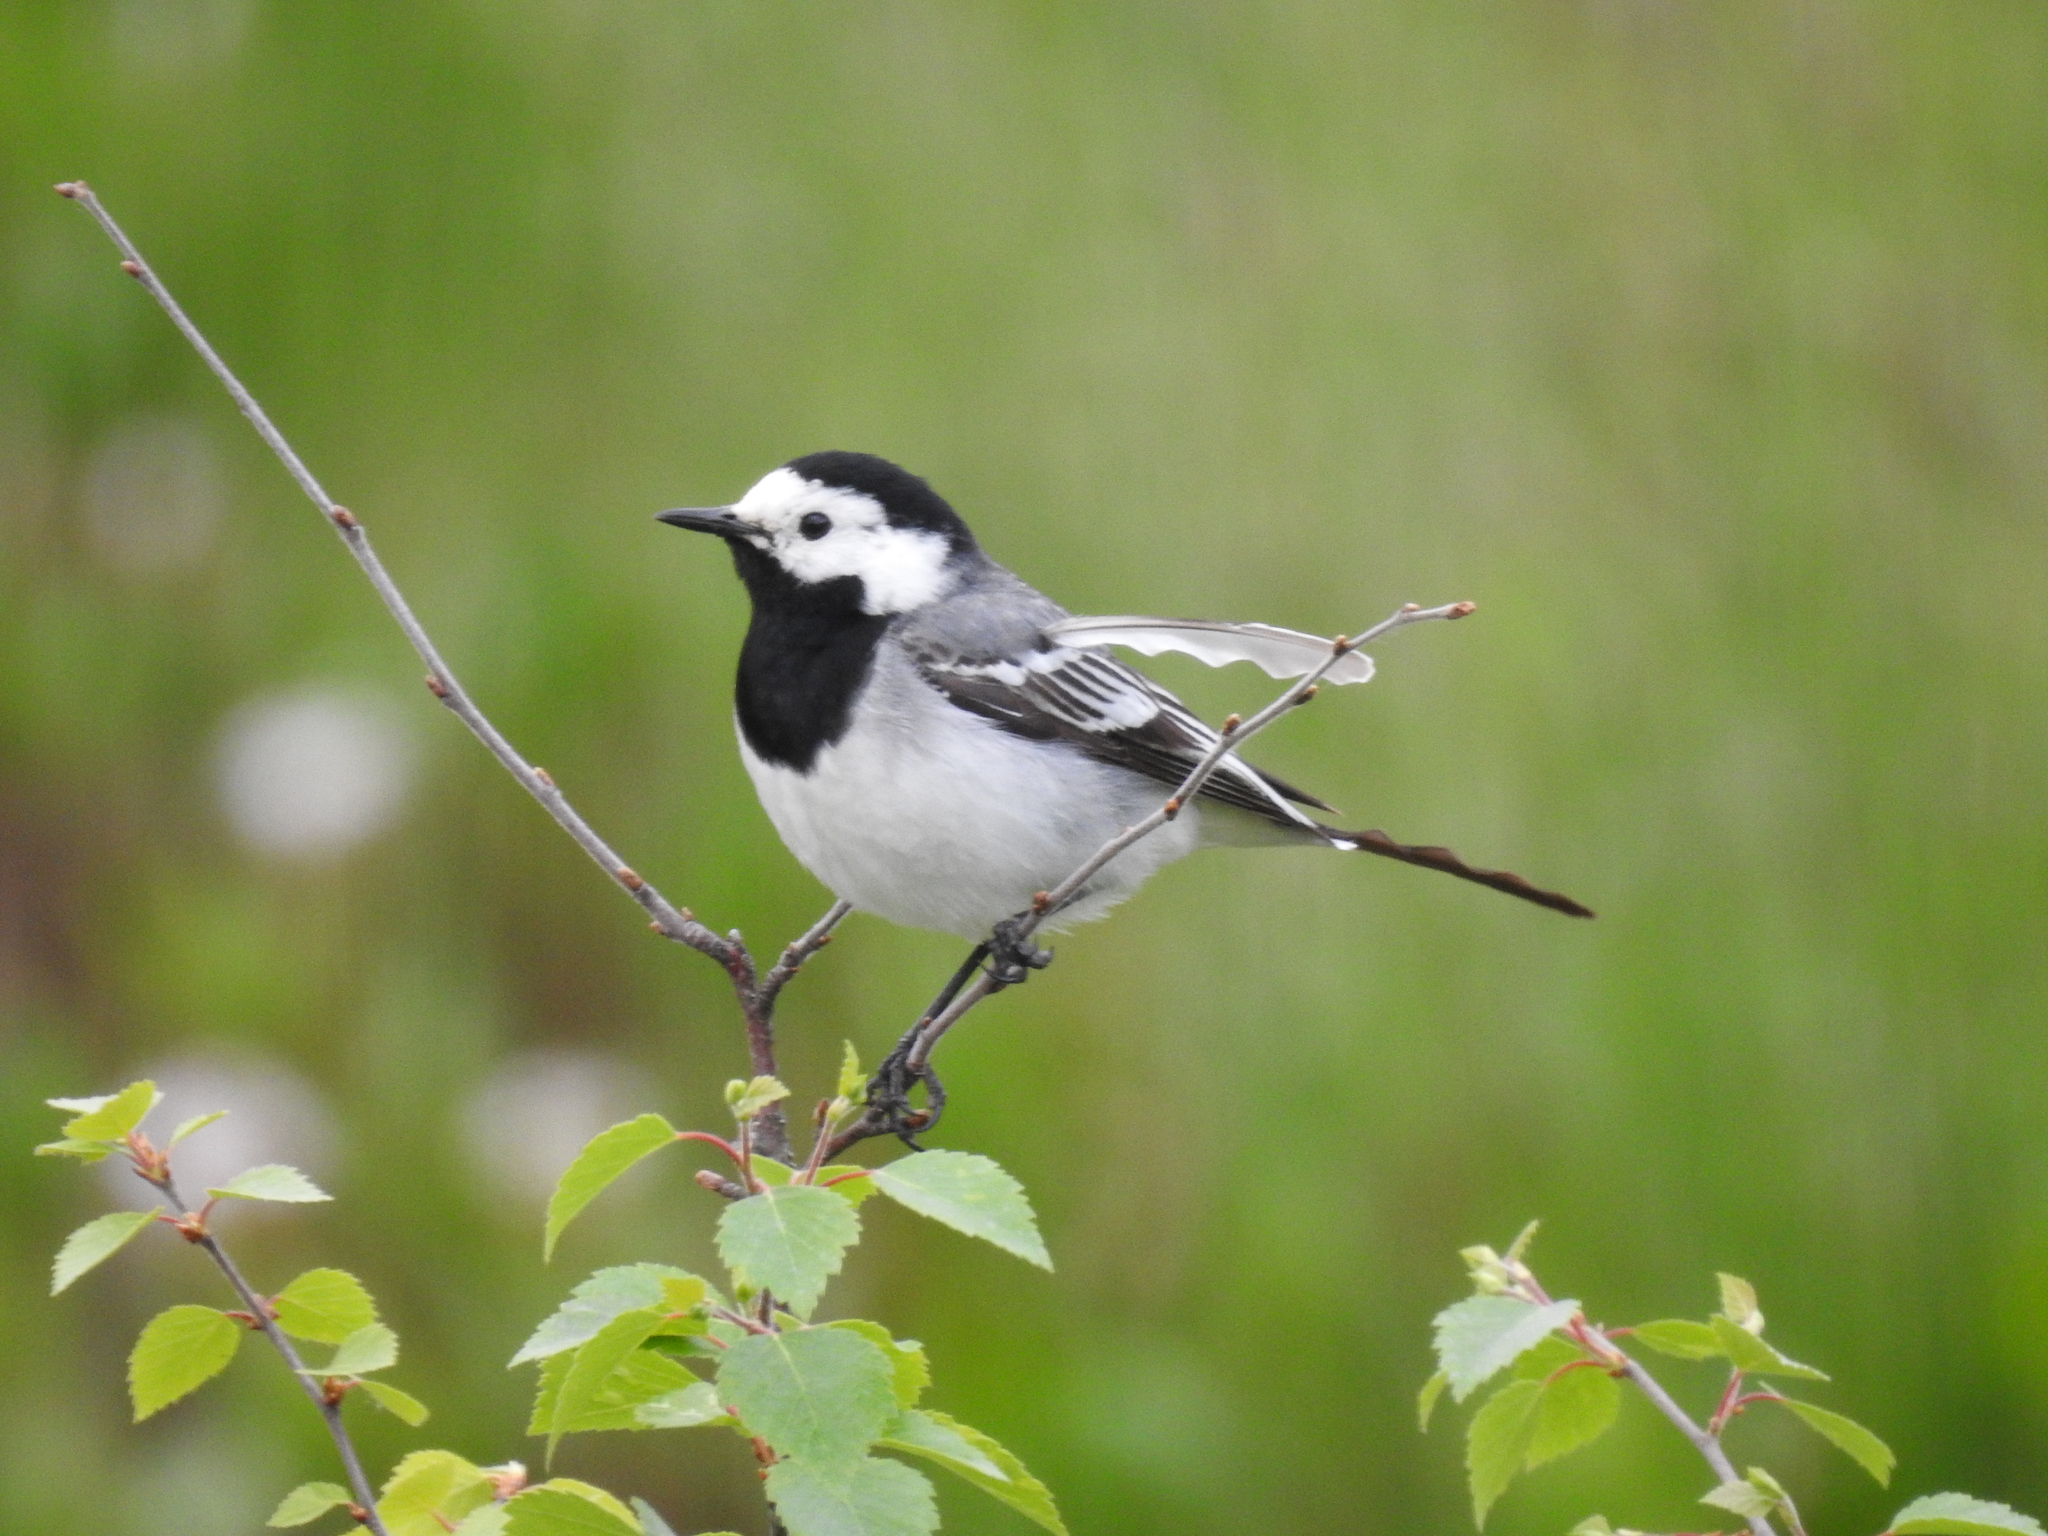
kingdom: Animalia
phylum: Chordata
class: Aves
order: Passeriformes
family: Motacillidae
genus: Motacilla
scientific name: Motacilla alba
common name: White wagtail
